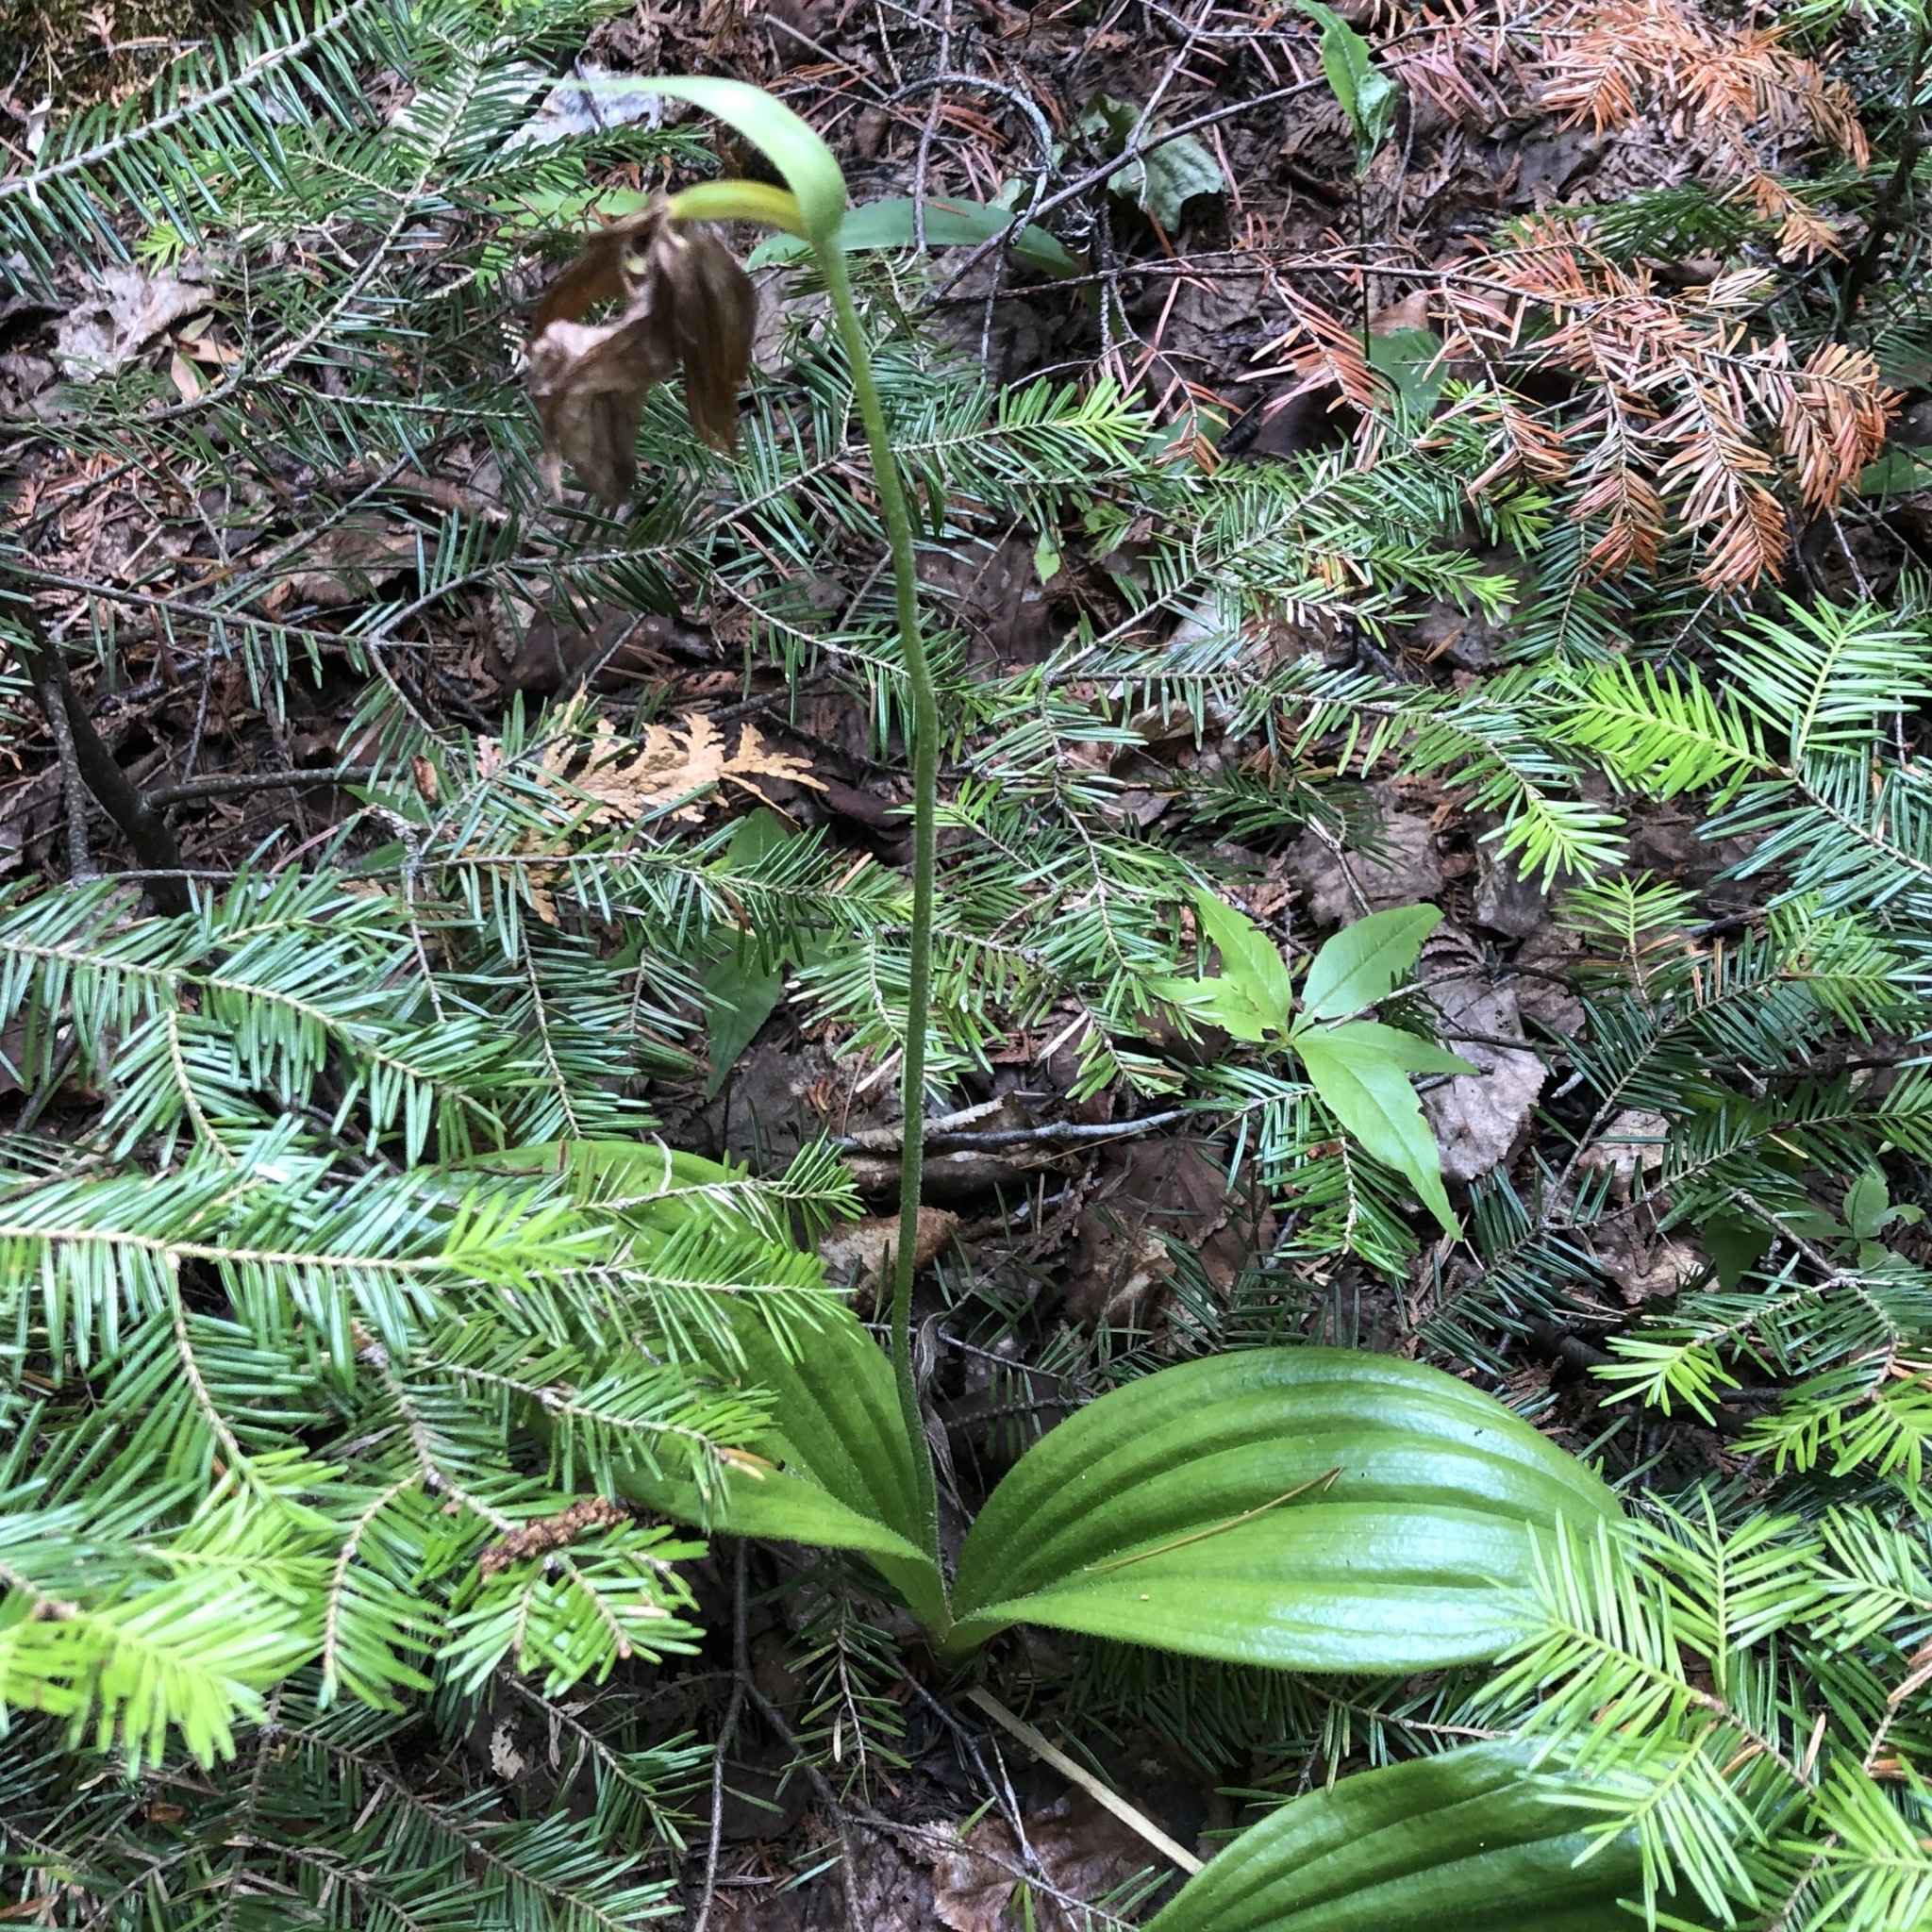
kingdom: Plantae
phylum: Tracheophyta
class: Liliopsida
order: Asparagales
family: Orchidaceae
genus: Cypripedium
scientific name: Cypripedium acaule
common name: Pink lady's-slipper
